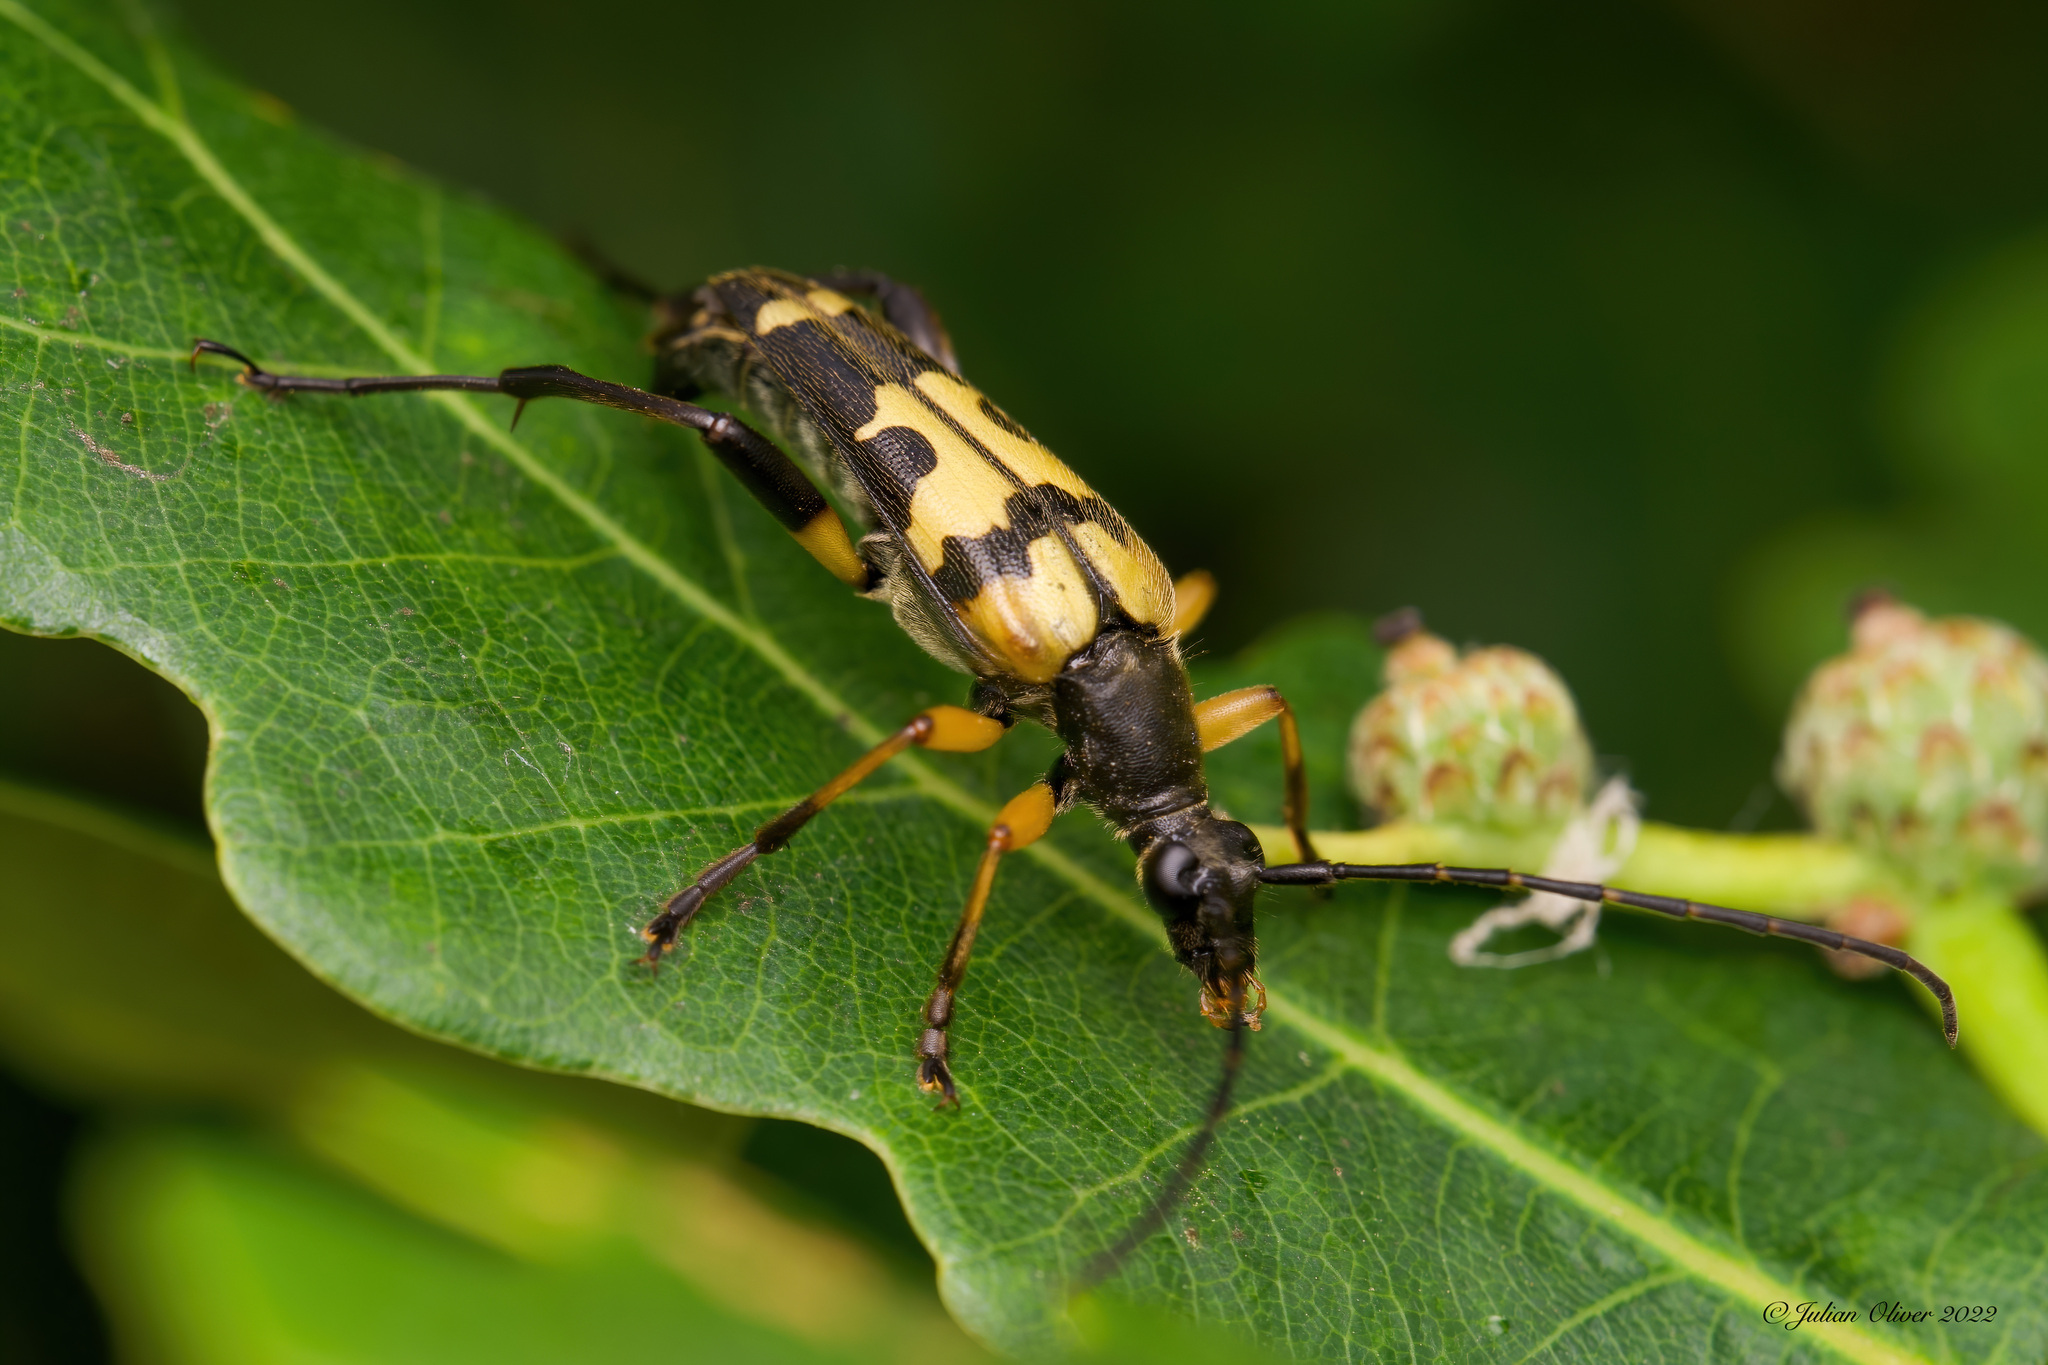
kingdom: Animalia
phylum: Arthropoda
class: Insecta
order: Coleoptera
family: Cerambycidae
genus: Rutpela
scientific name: Rutpela maculata
